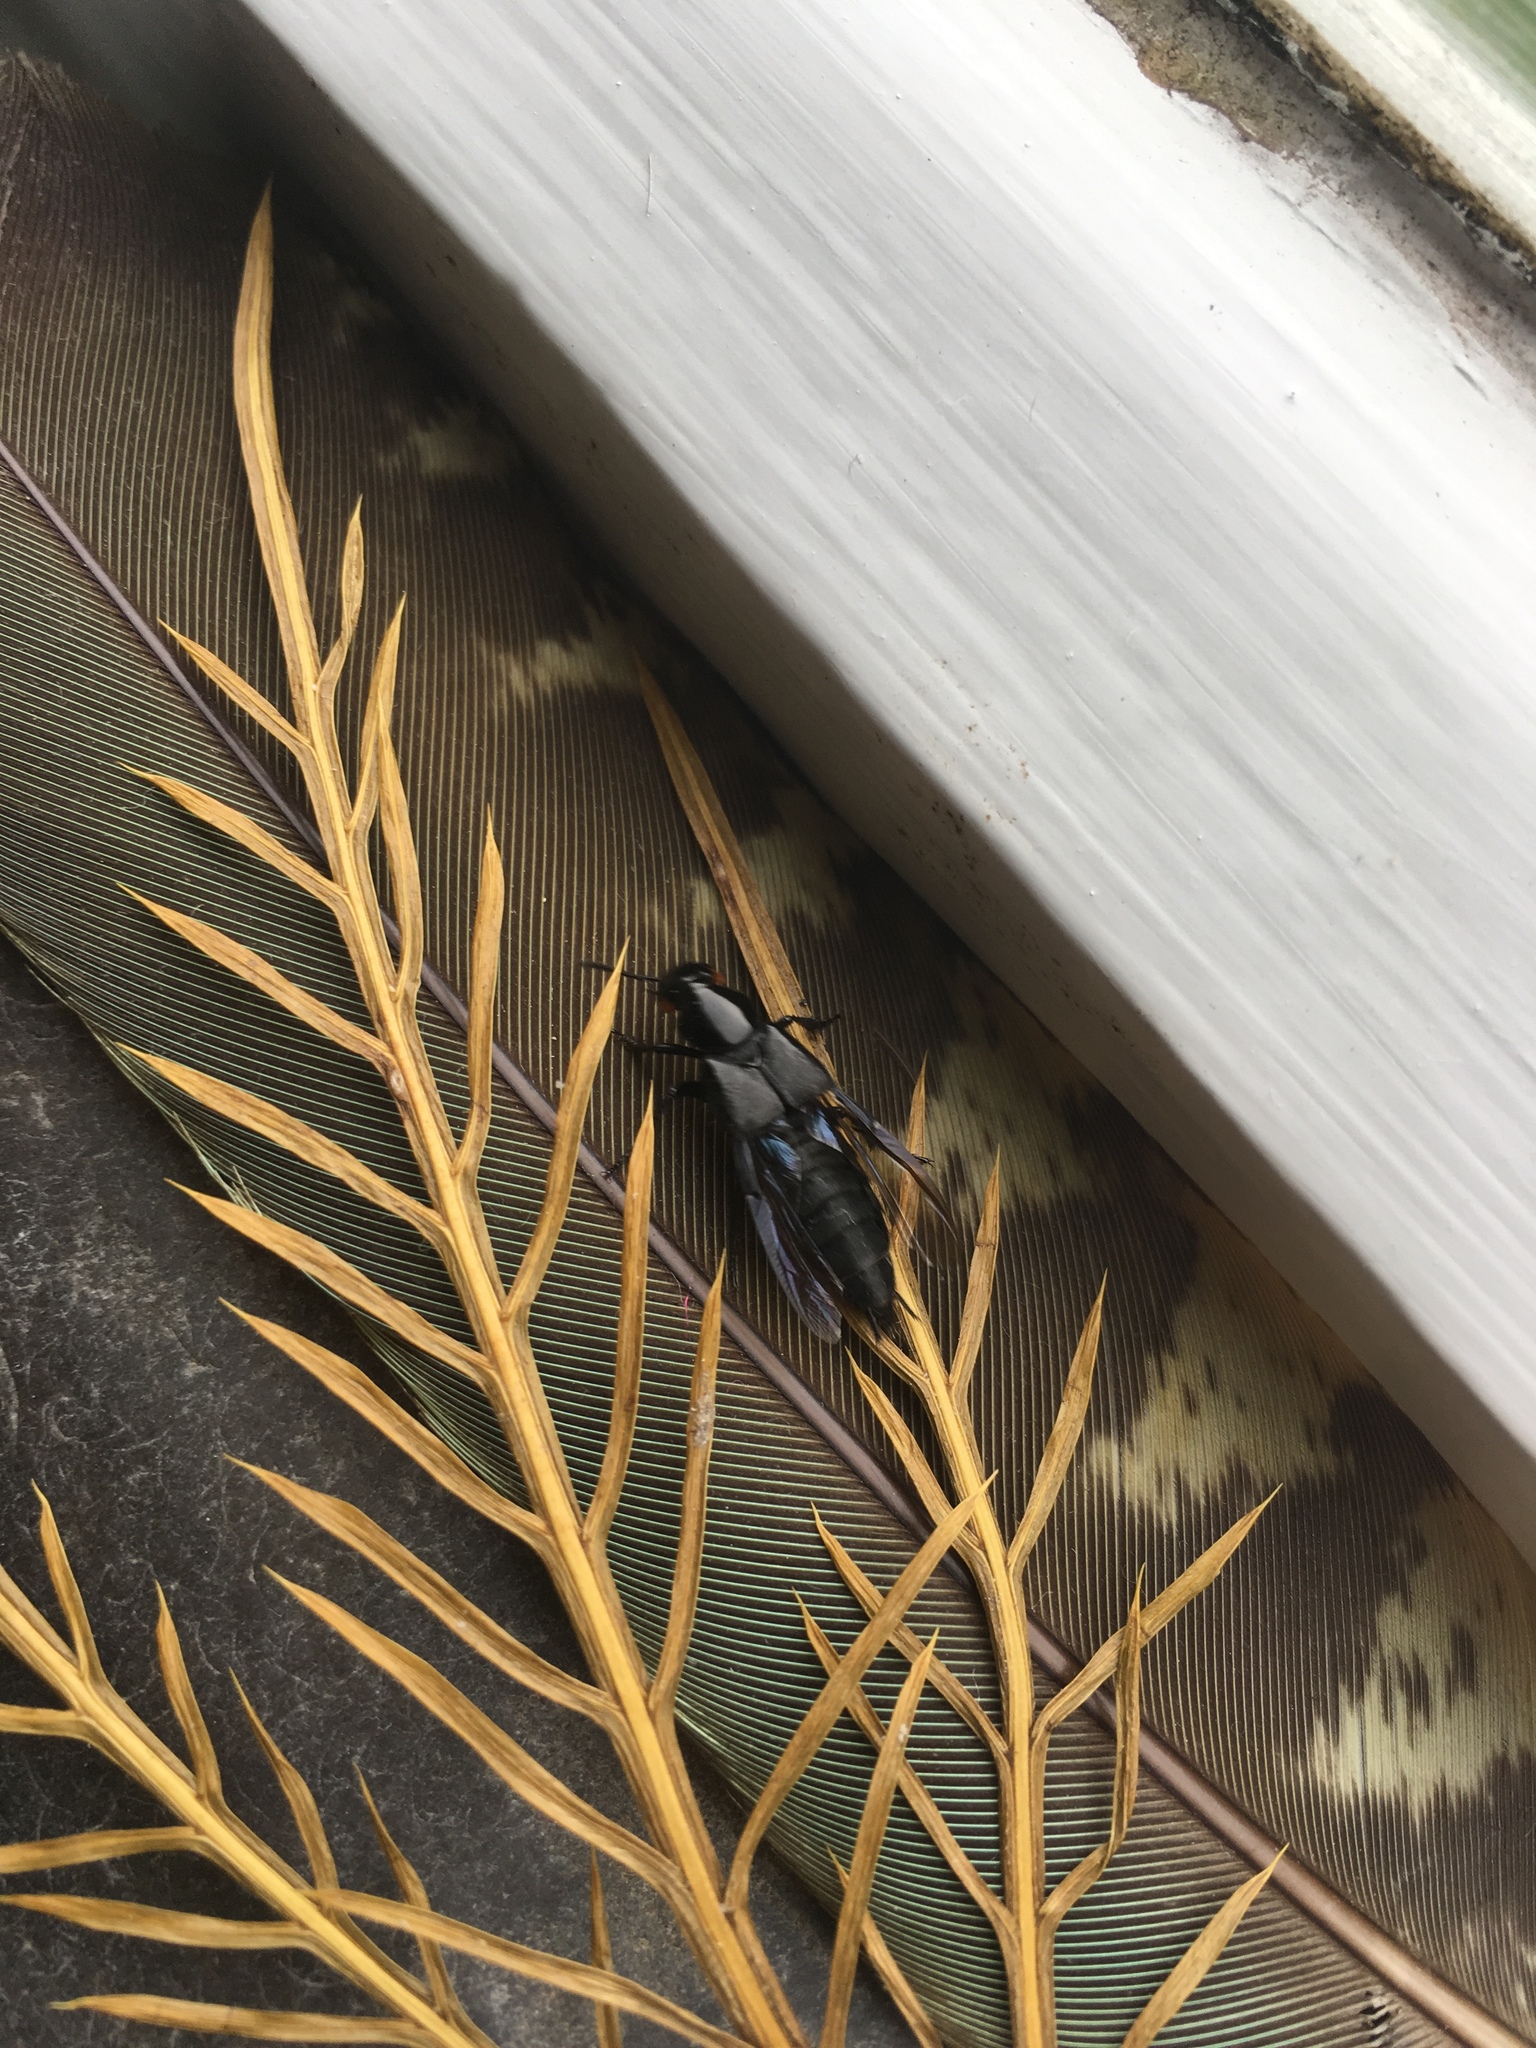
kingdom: Animalia
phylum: Arthropoda
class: Insecta
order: Coleoptera
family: Staphylinidae
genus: Creophilus
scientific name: Creophilus oculatus
